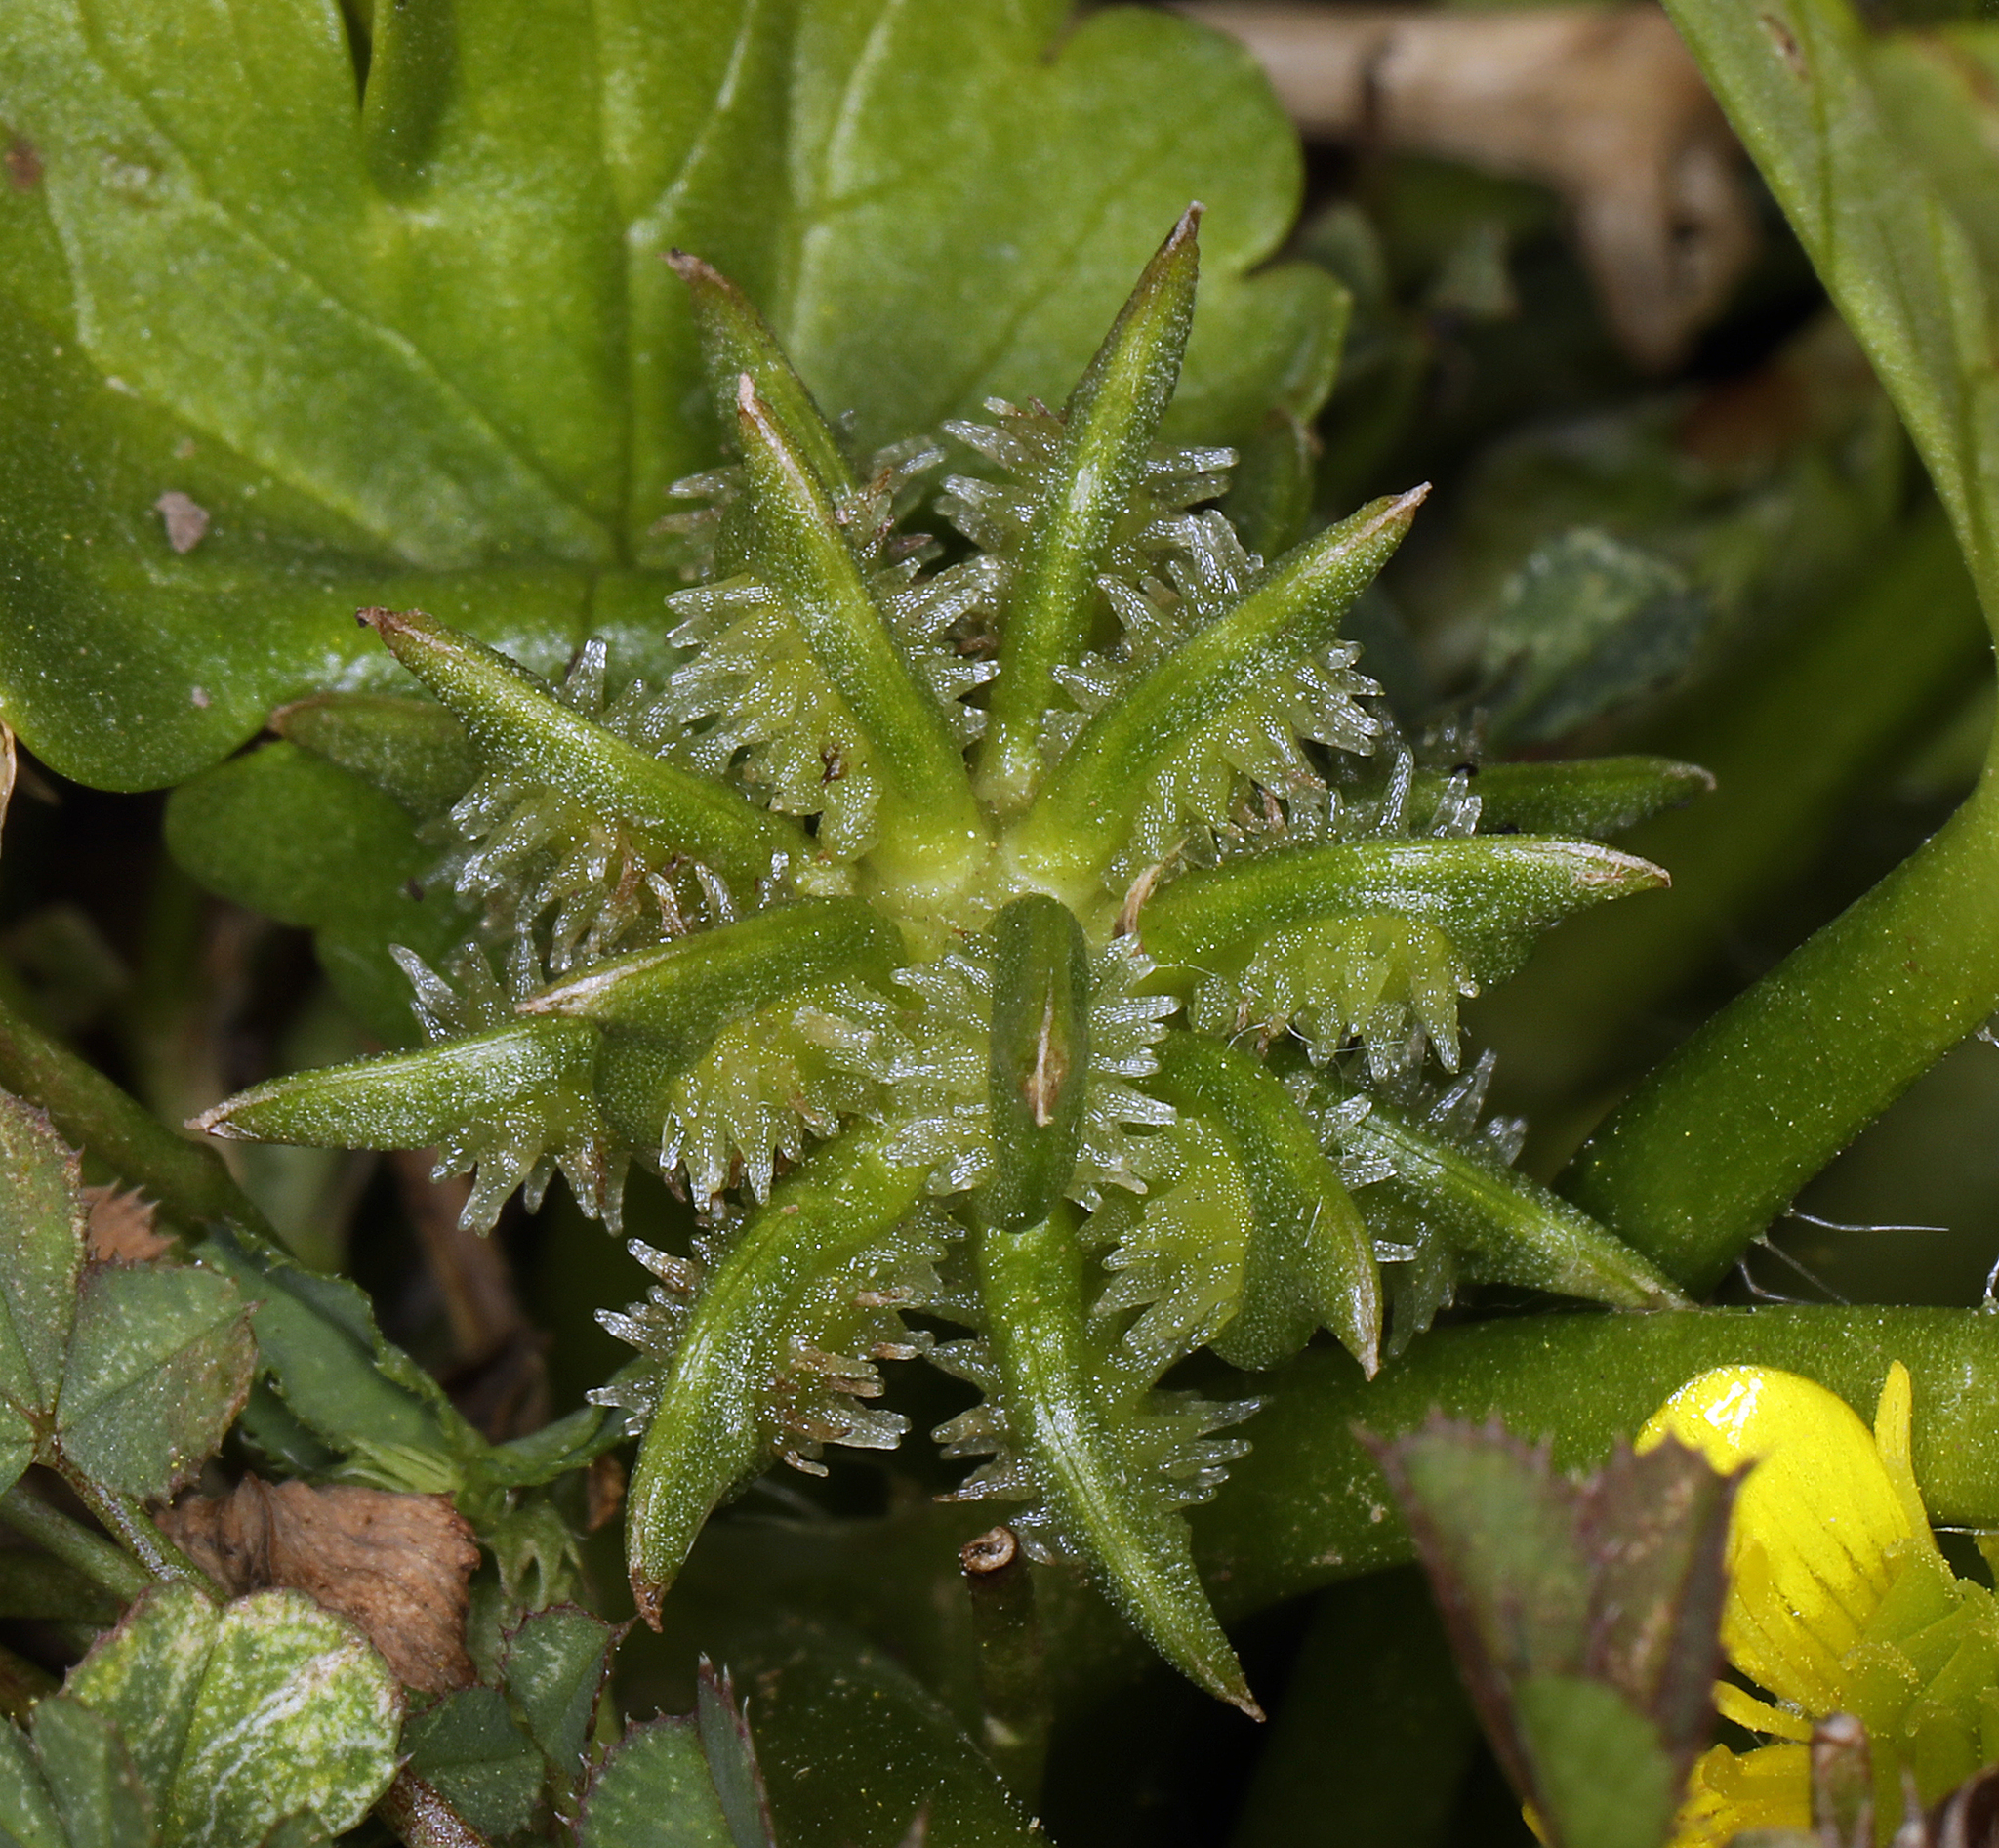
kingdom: Plantae
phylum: Tracheophyta
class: Magnoliopsida
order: Ranunculales
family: Ranunculaceae
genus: Ranunculus
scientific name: Ranunculus muricatus
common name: Rough-fruited buttercup
